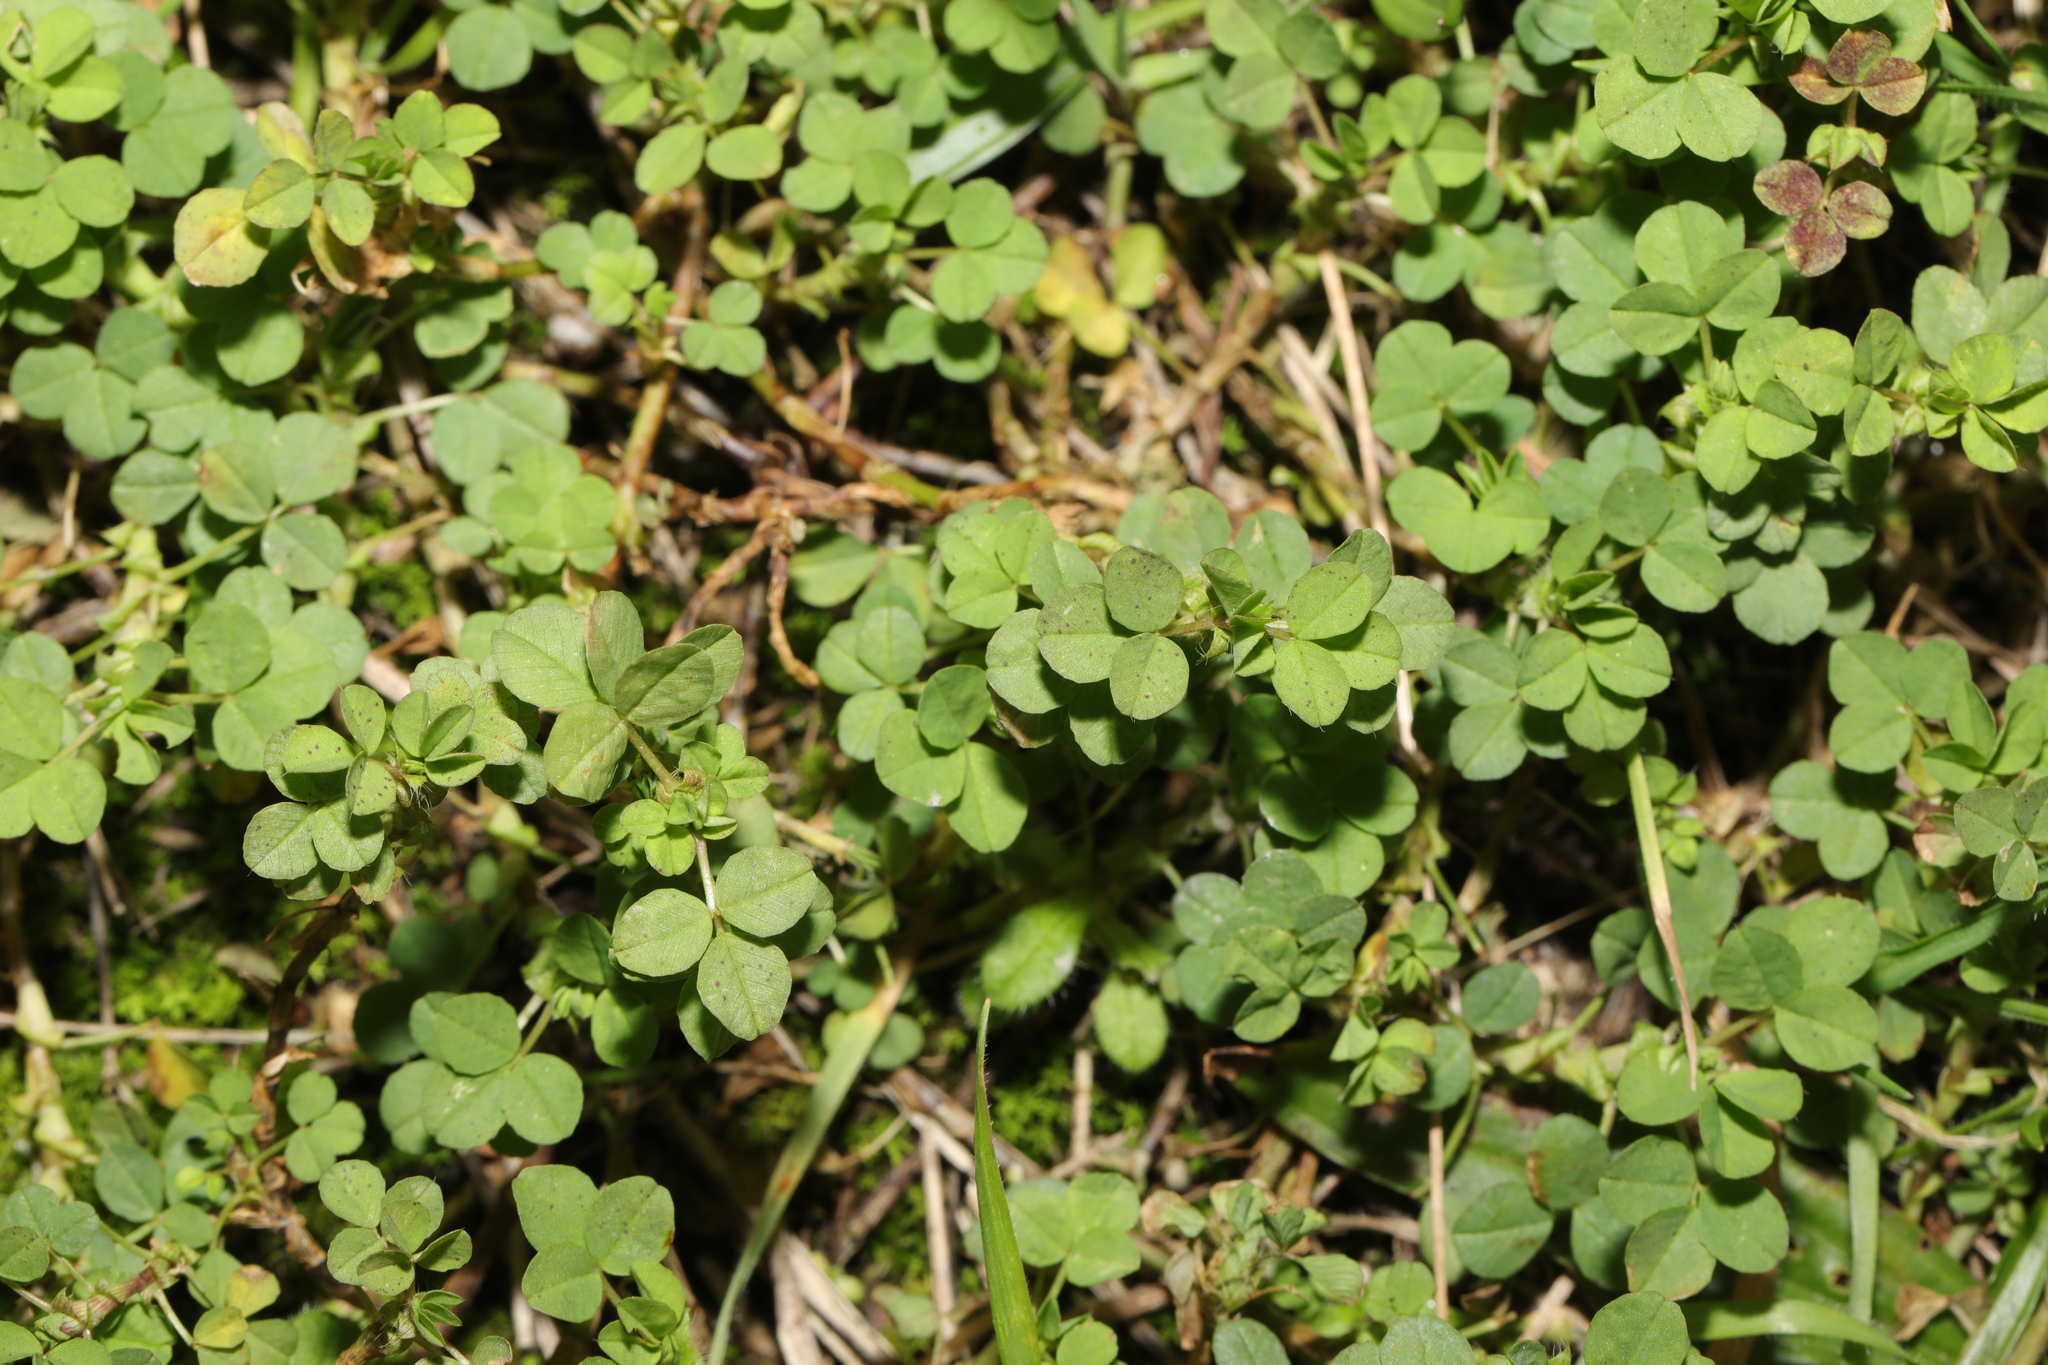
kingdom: Plantae
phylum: Tracheophyta
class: Magnoliopsida
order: Fabales
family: Fabaceae
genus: Medicago
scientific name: Medicago lupulina
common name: Black medick
